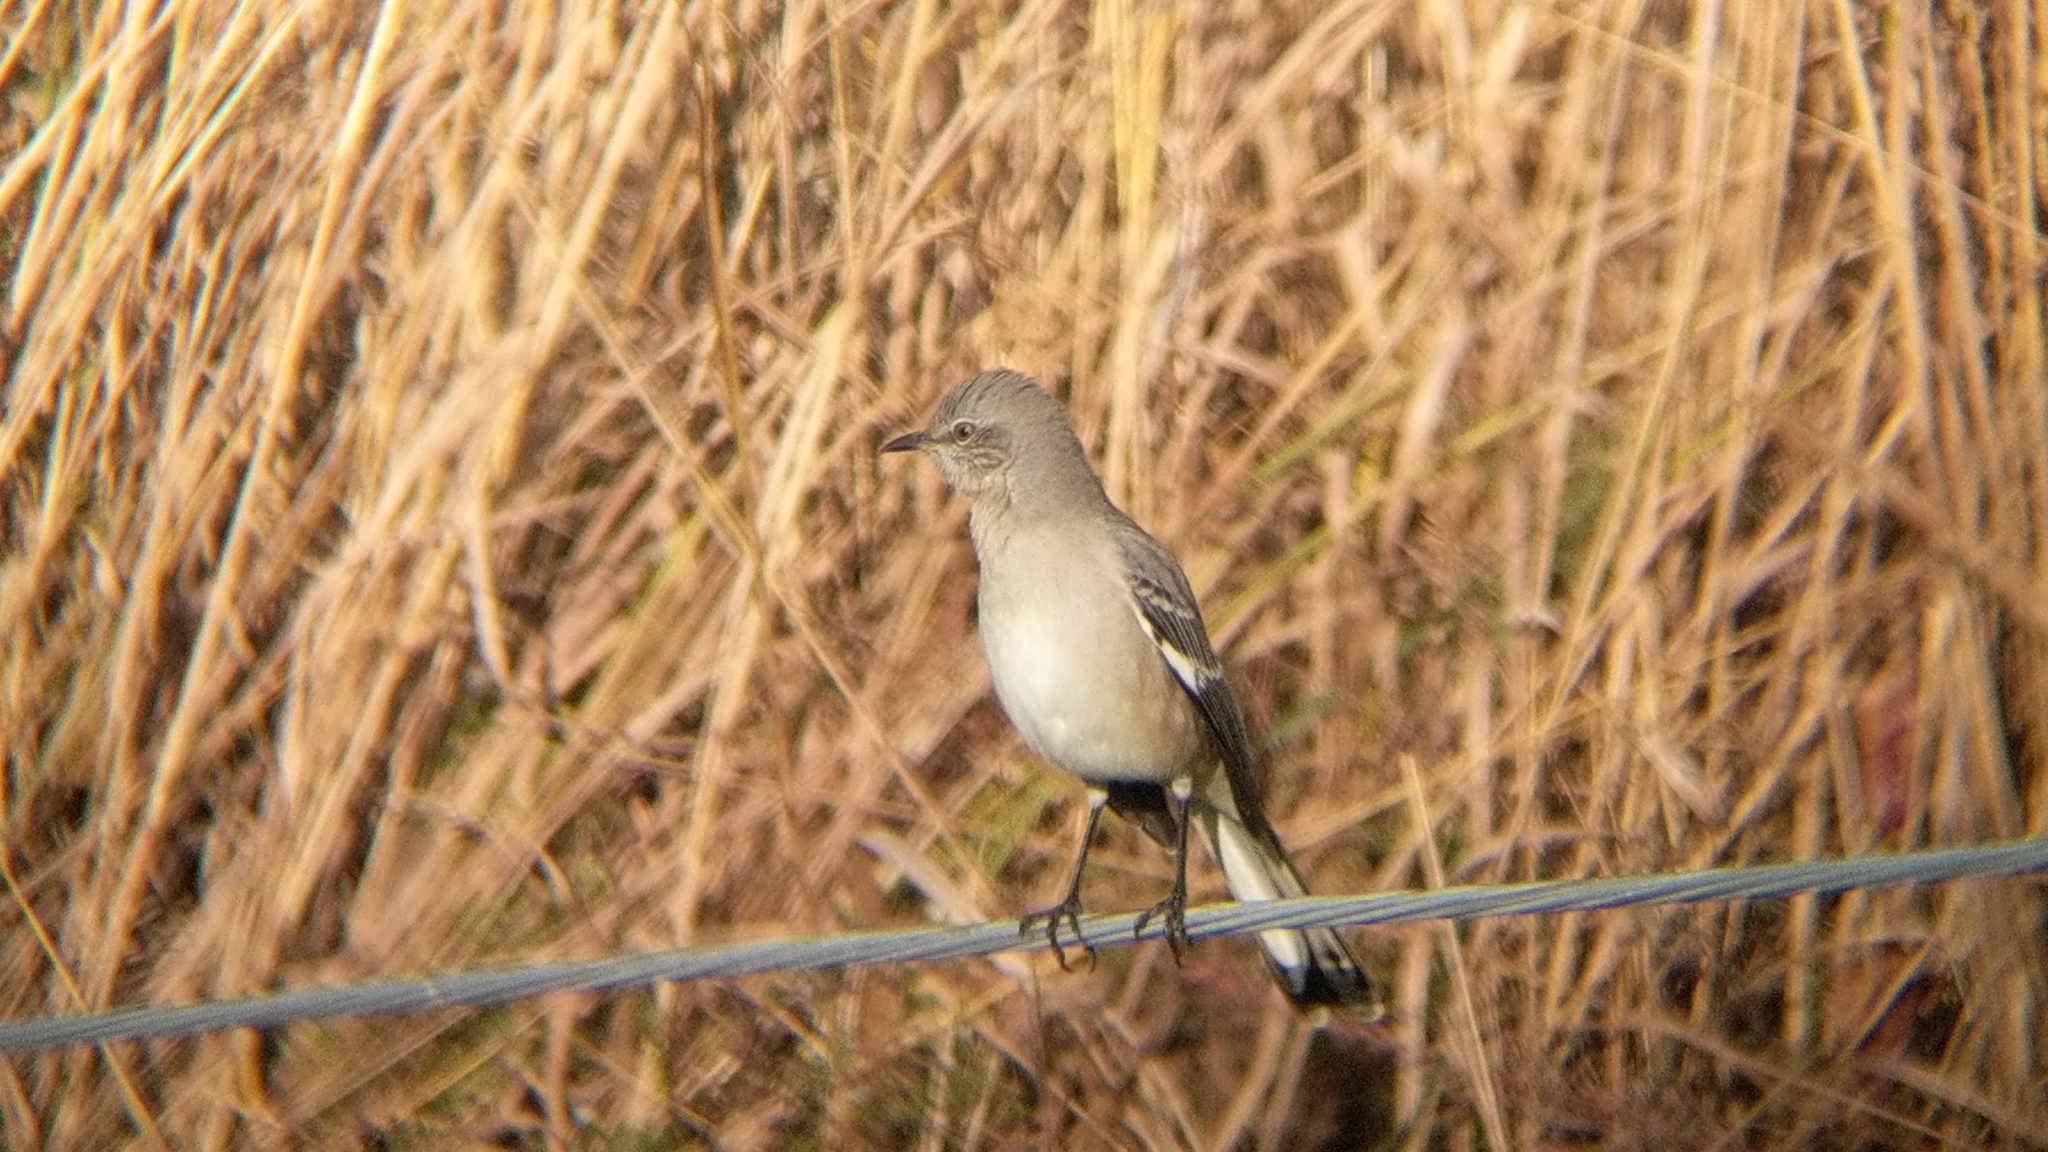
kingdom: Animalia
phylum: Chordata
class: Aves
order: Passeriformes
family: Mimidae
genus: Mimus
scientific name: Mimus polyglottos
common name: Northern mockingbird
